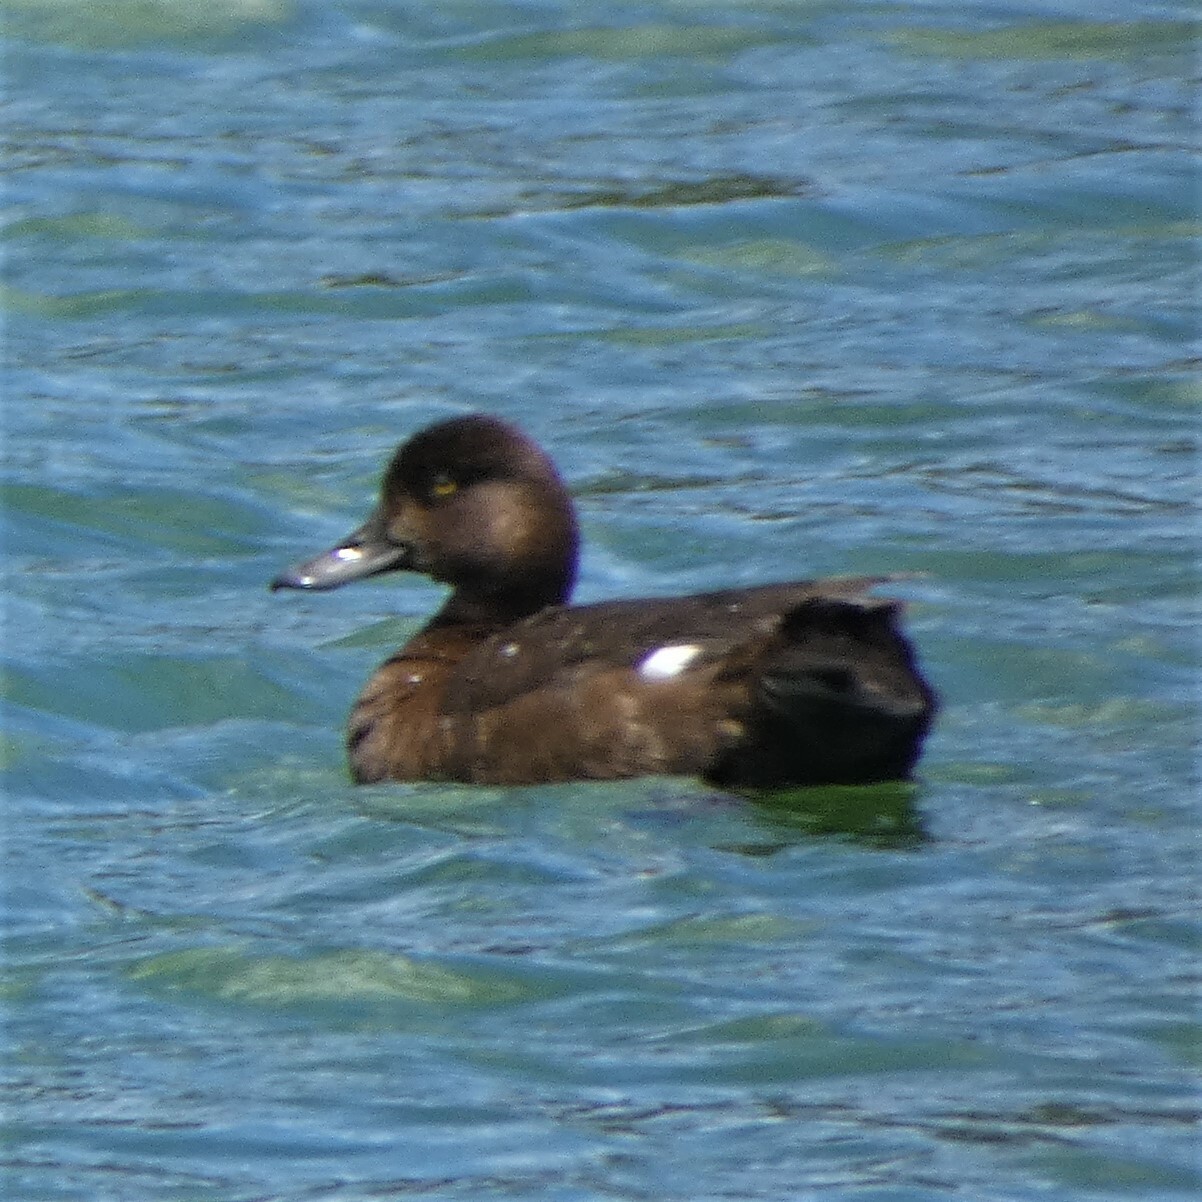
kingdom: Animalia
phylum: Chordata
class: Aves
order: Anseriformes
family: Anatidae
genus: Aythya
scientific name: Aythya affinis
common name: Lesser scaup
